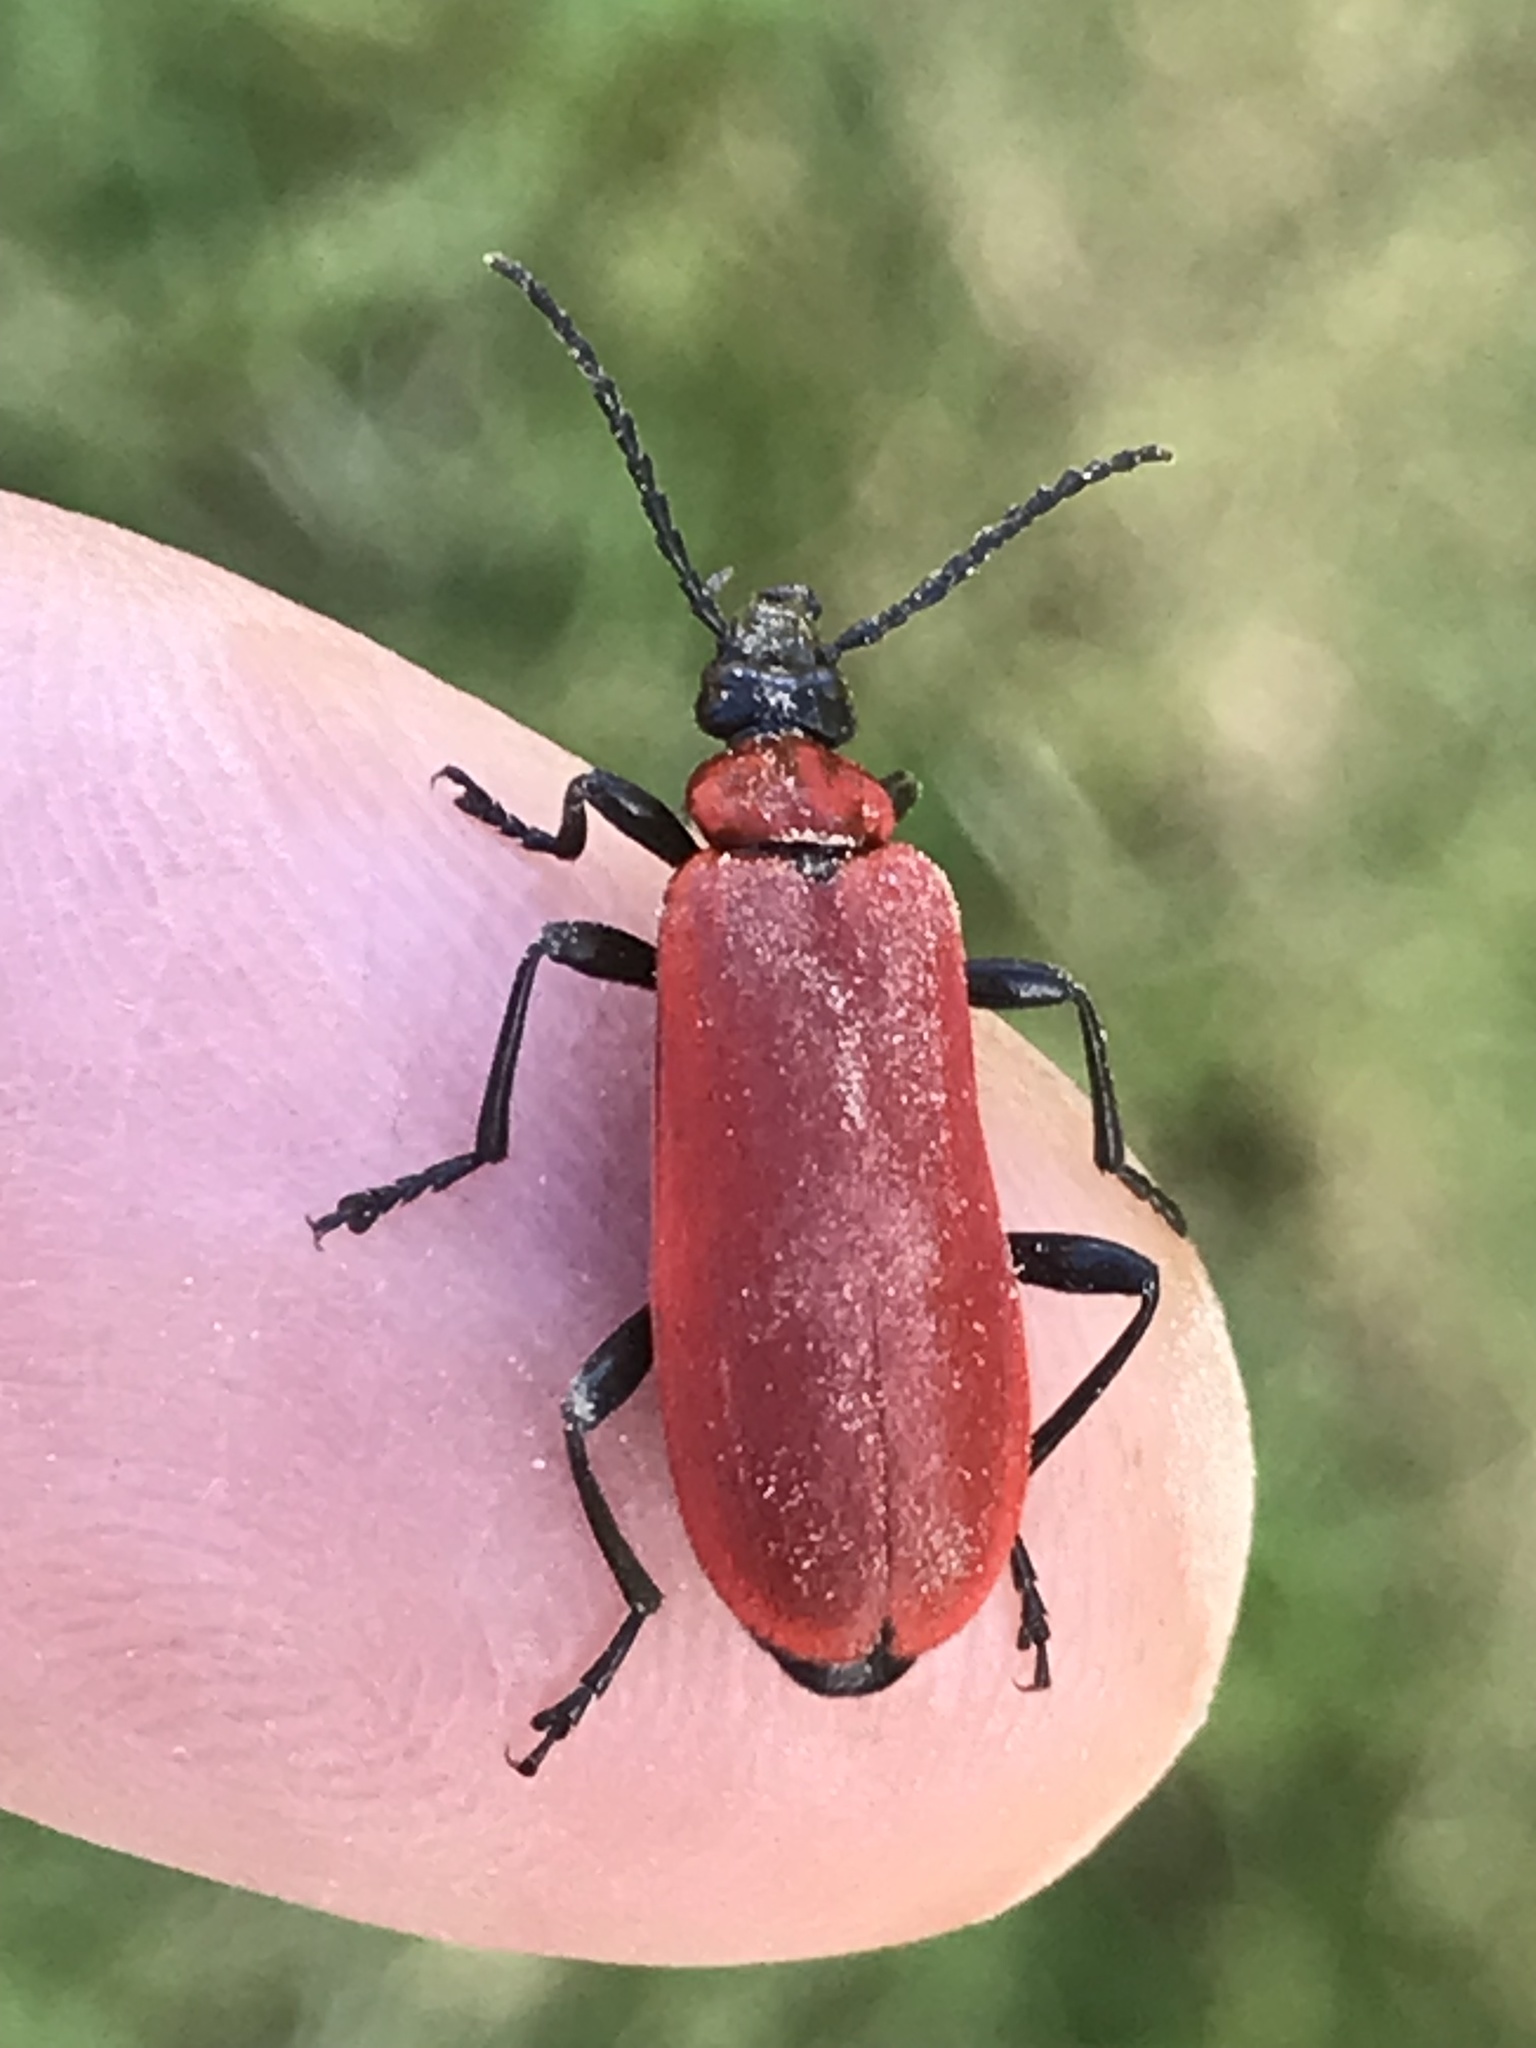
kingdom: Animalia
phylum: Arthropoda
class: Insecta
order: Coleoptera
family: Pyrochroidae
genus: Pyrochroa
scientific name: Pyrochroa coccinea
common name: Black-headed cardinal beetle
